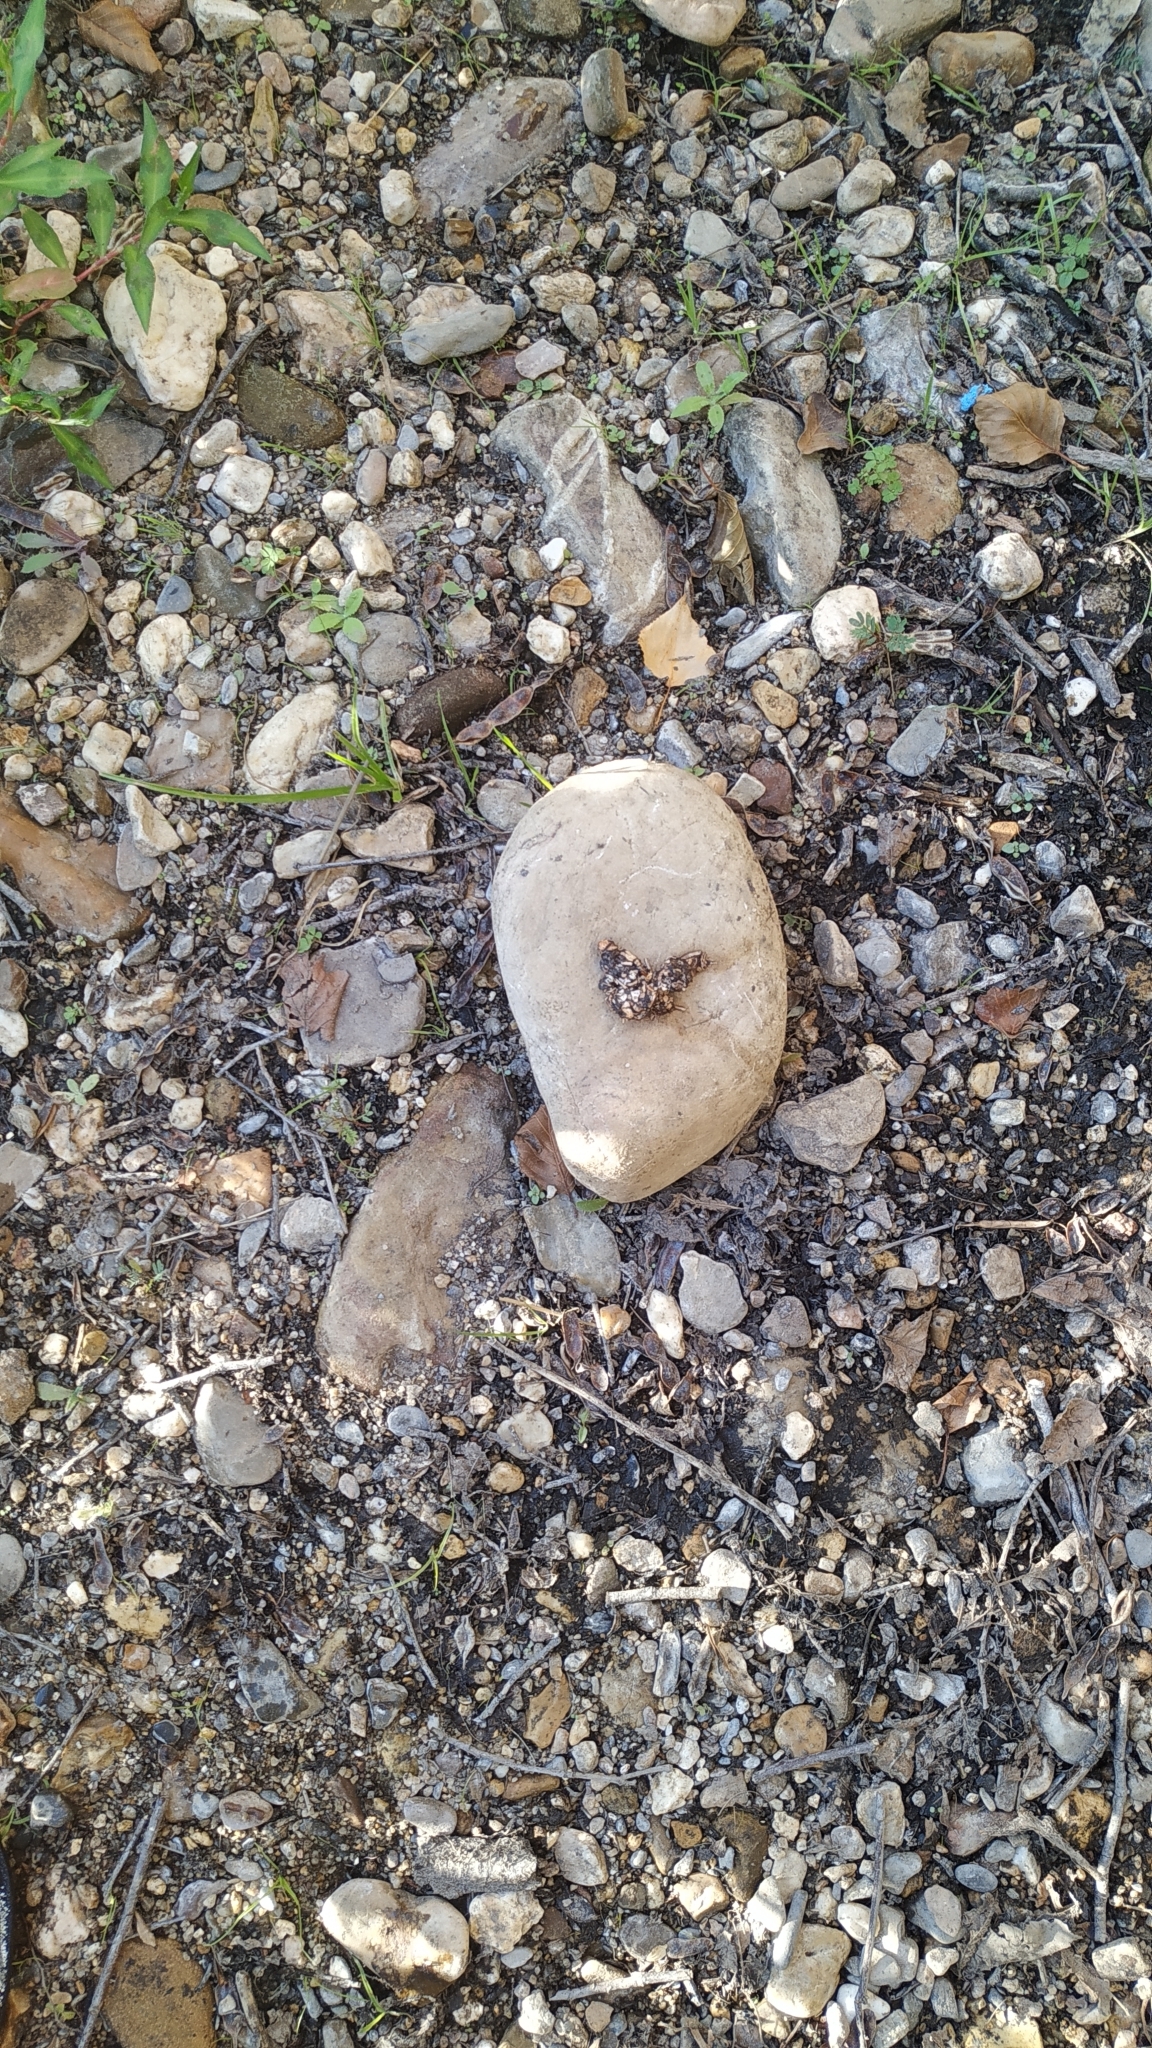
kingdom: Animalia
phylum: Chordata
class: Mammalia
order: Carnivora
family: Mustelidae
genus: Lutra
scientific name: Lutra lutra
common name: European otter
